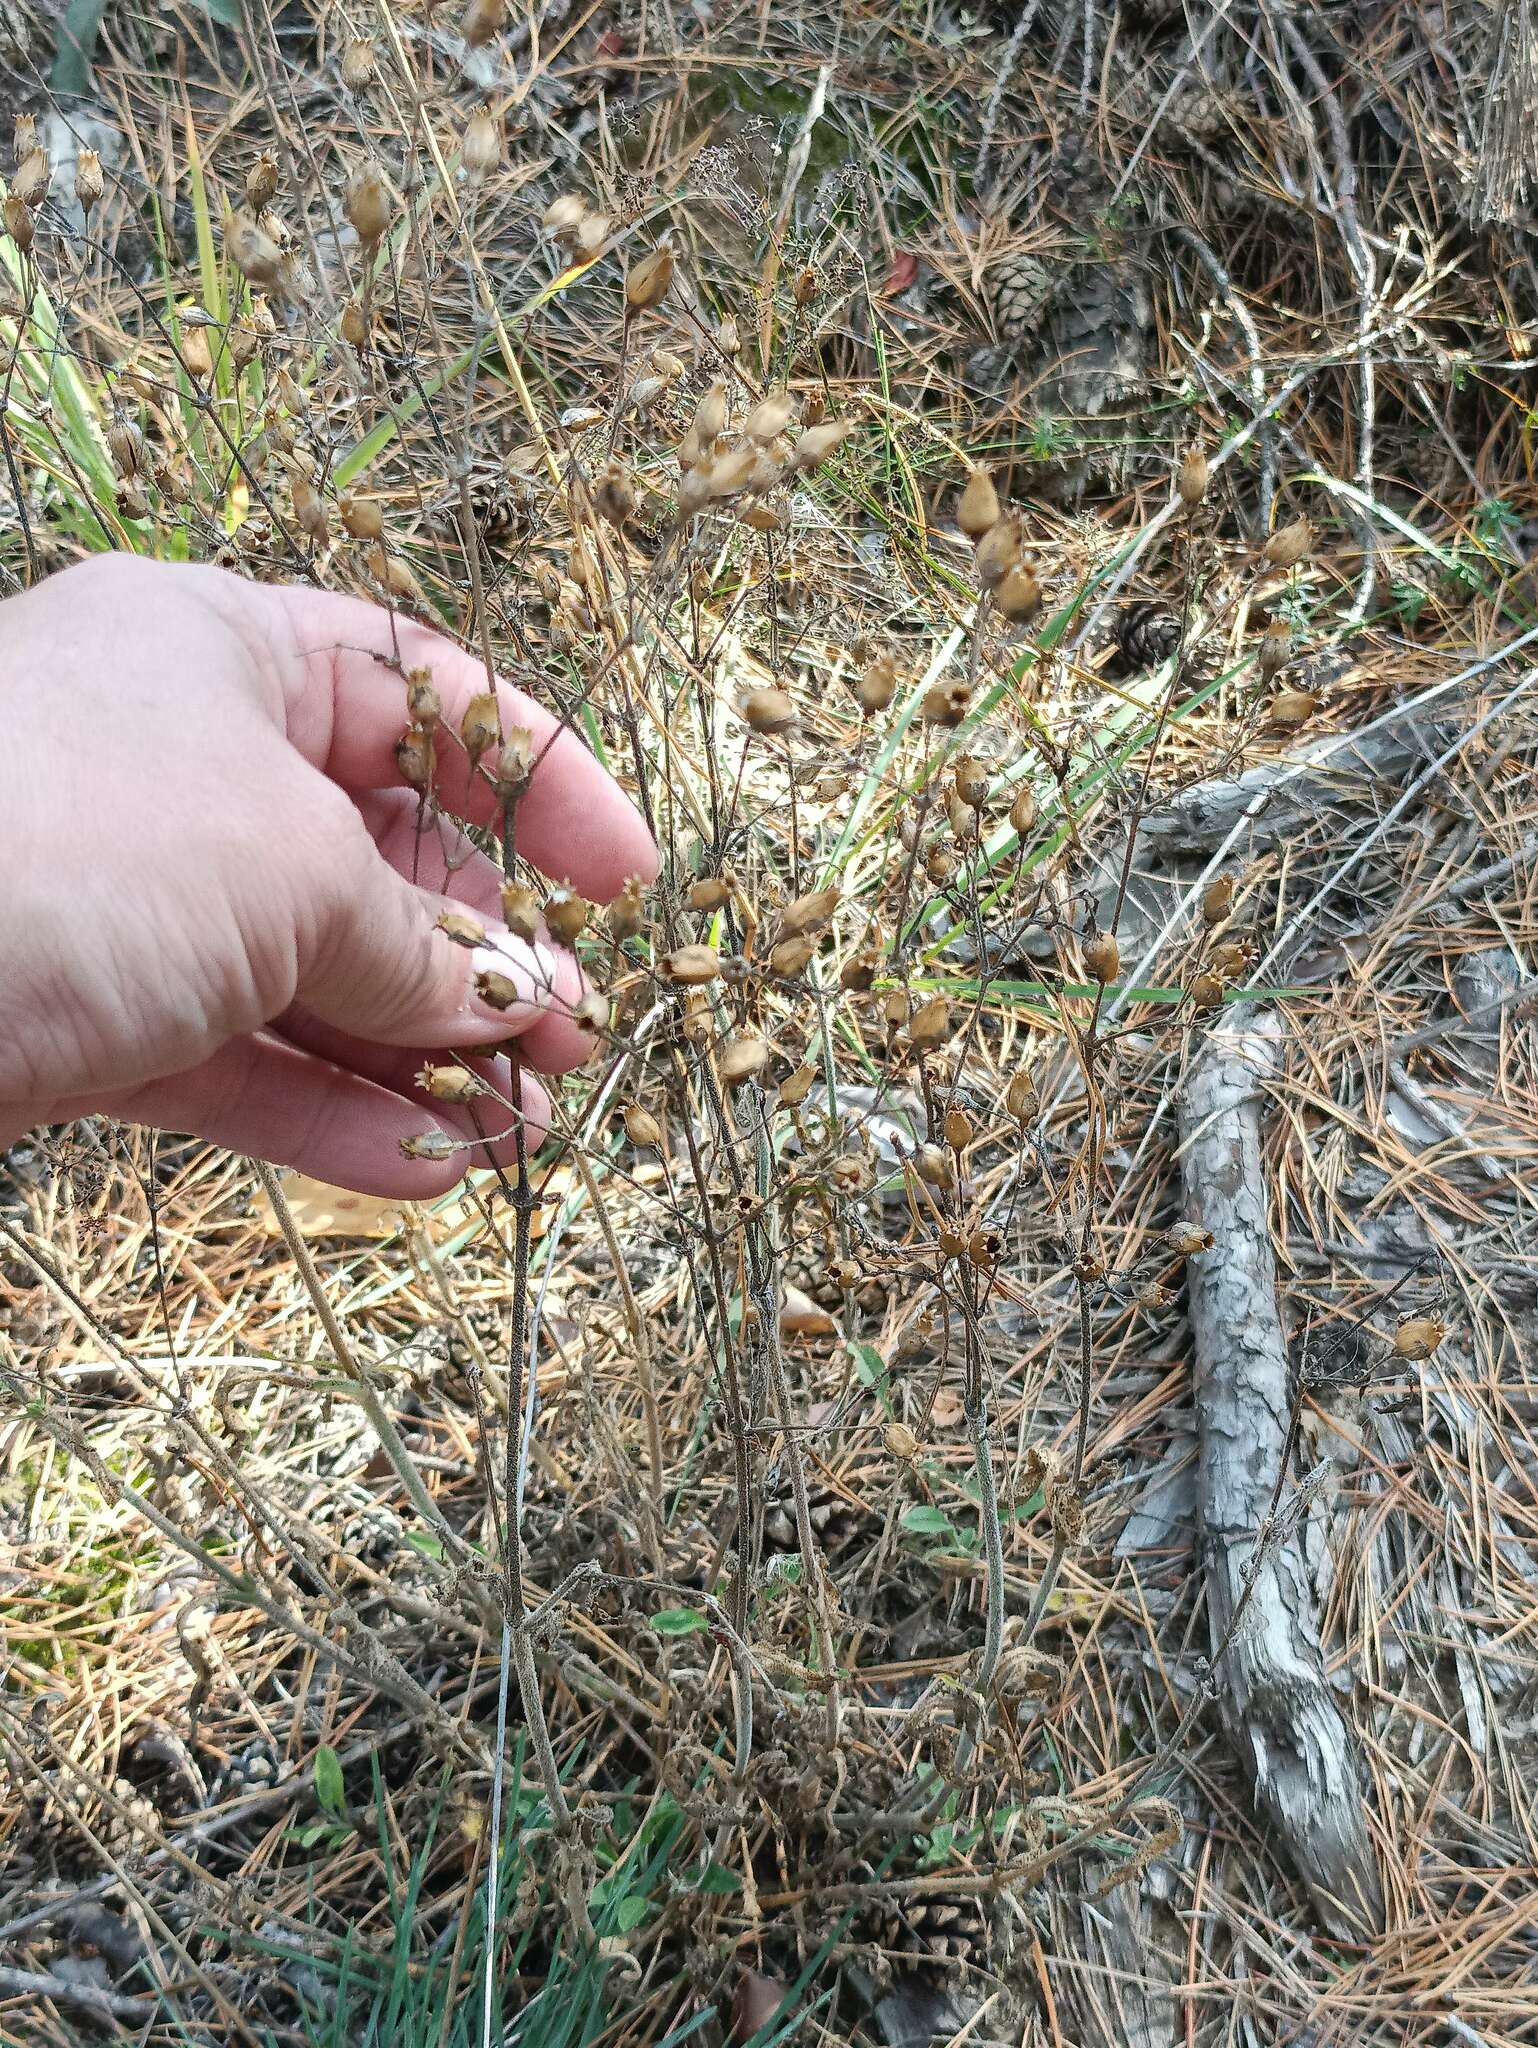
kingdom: Plantae
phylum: Tracheophyta
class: Magnoliopsida
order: Caryophyllales
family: Caryophyllaceae
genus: Silene
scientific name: Silene nutans
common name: Nottingham catchfly
